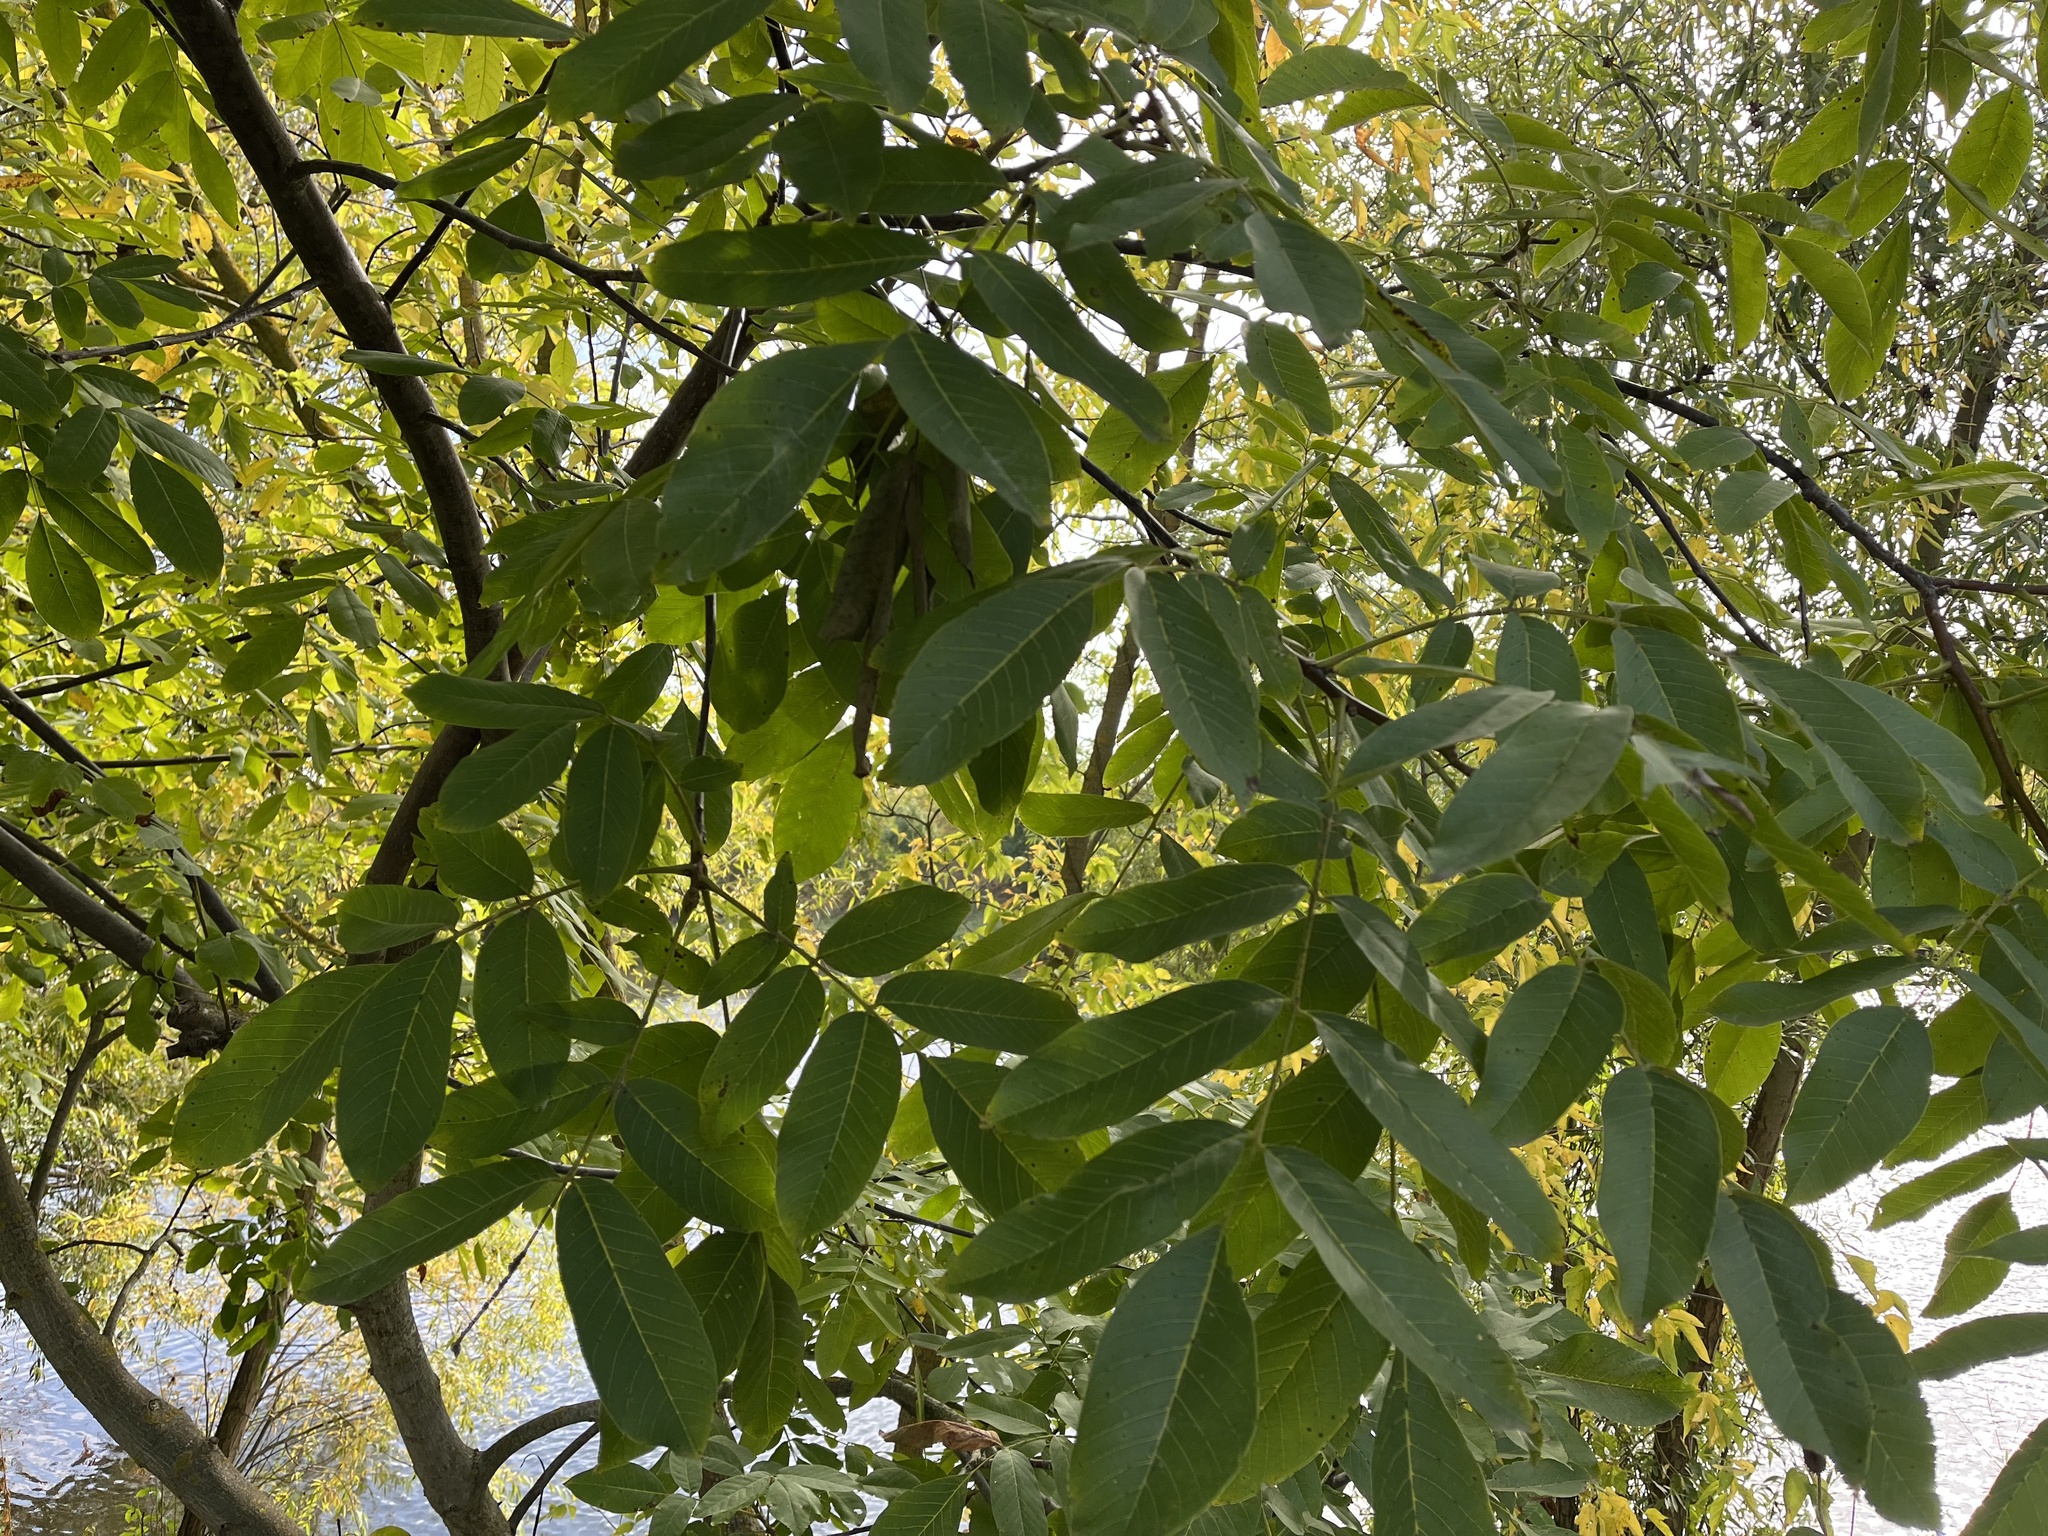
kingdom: Plantae
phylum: Tracheophyta
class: Magnoliopsida
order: Fagales
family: Juglandaceae
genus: Juglans
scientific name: Juglans regia
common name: Walnut
